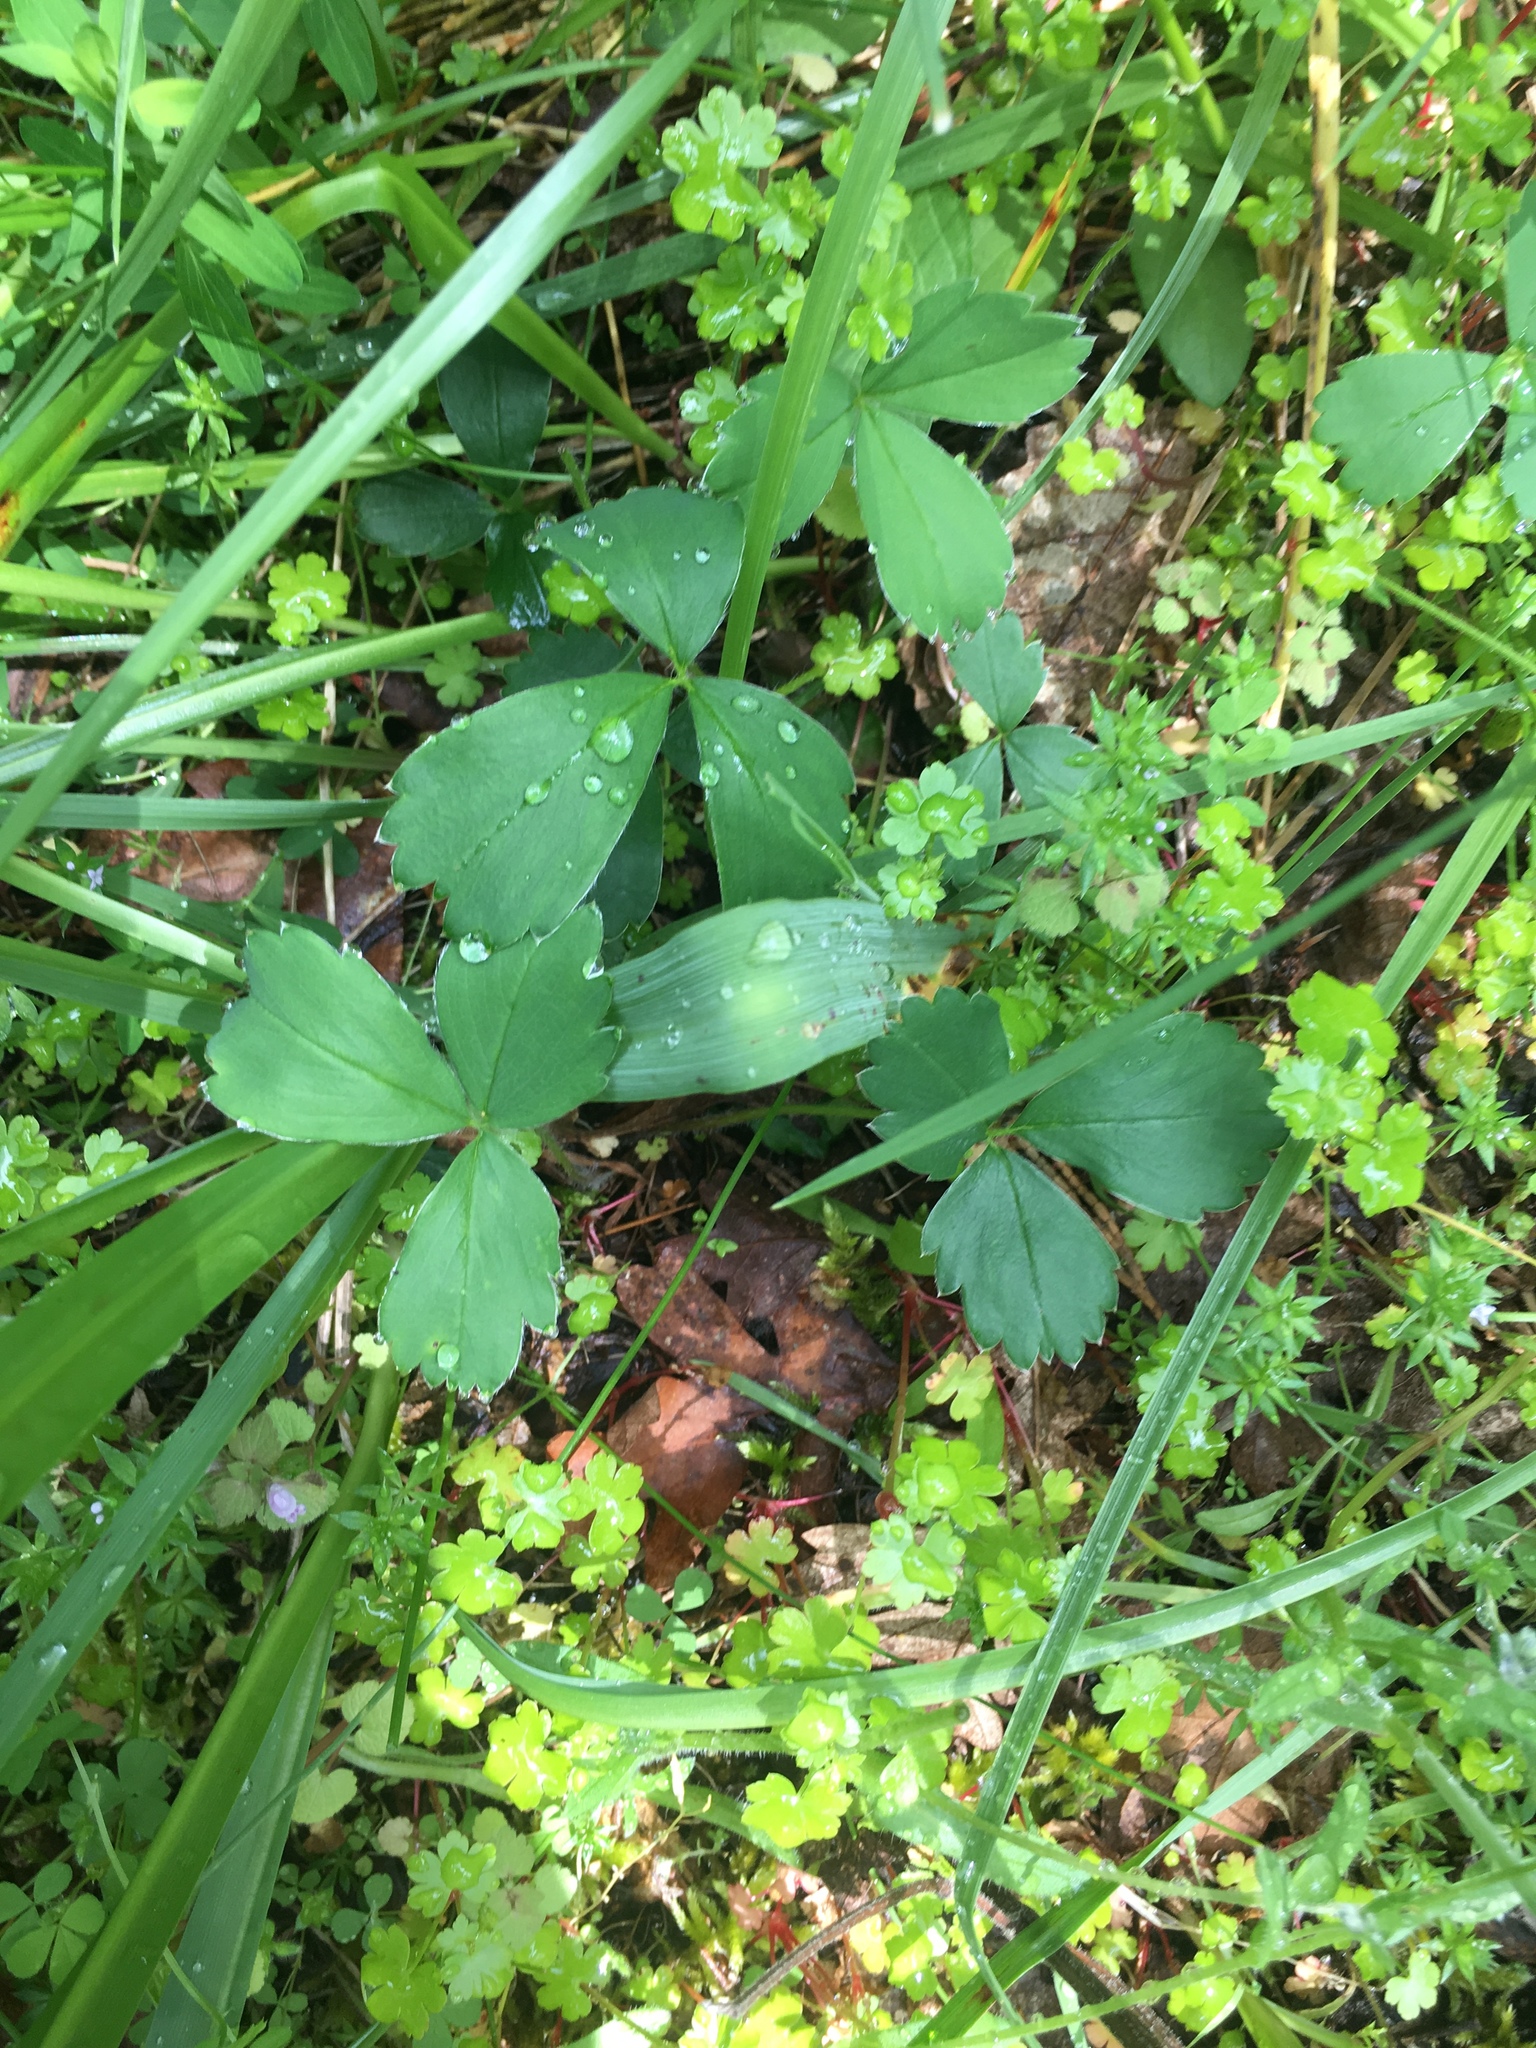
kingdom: Plantae
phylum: Tracheophyta
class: Magnoliopsida
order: Rosales
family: Rosaceae
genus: Fragaria
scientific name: Fragaria virginiana
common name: Thickleaved wild strawberry
